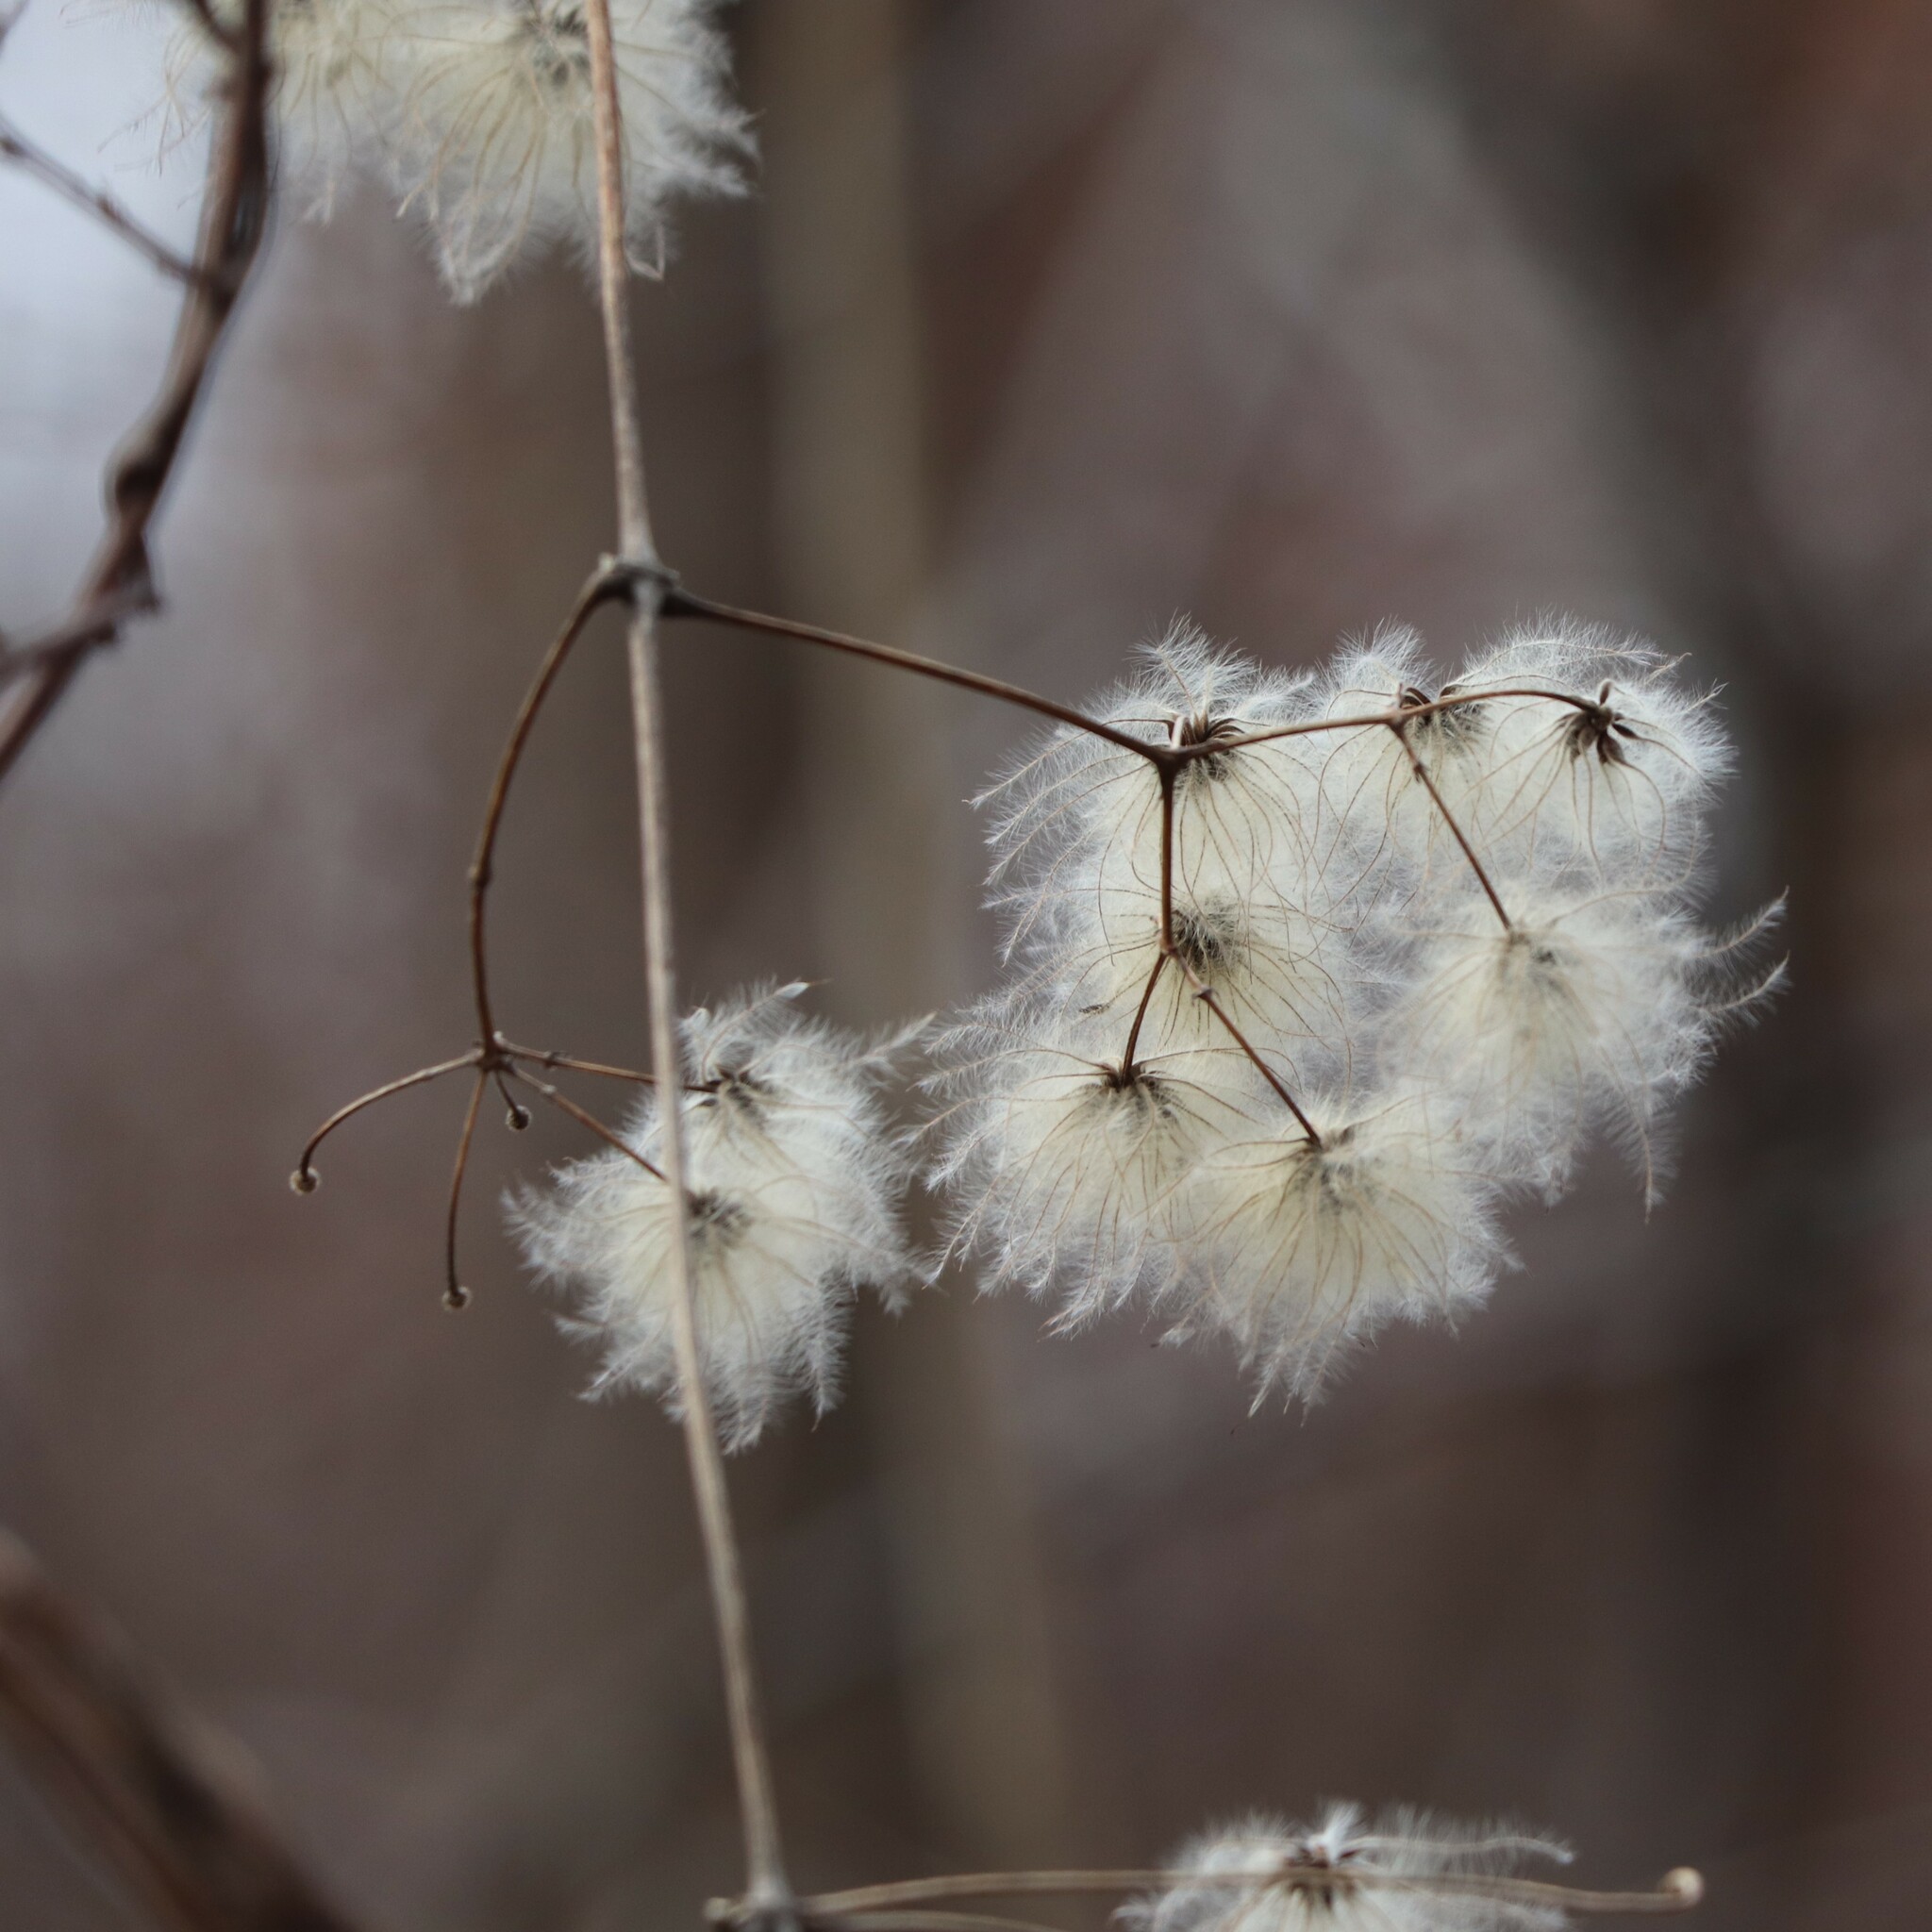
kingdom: Plantae
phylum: Tracheophyta
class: Magnoliopsida
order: Ranunculales
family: Ranunculaceae
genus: Clematis
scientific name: Clematis virginiana
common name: Virgin's-bower
